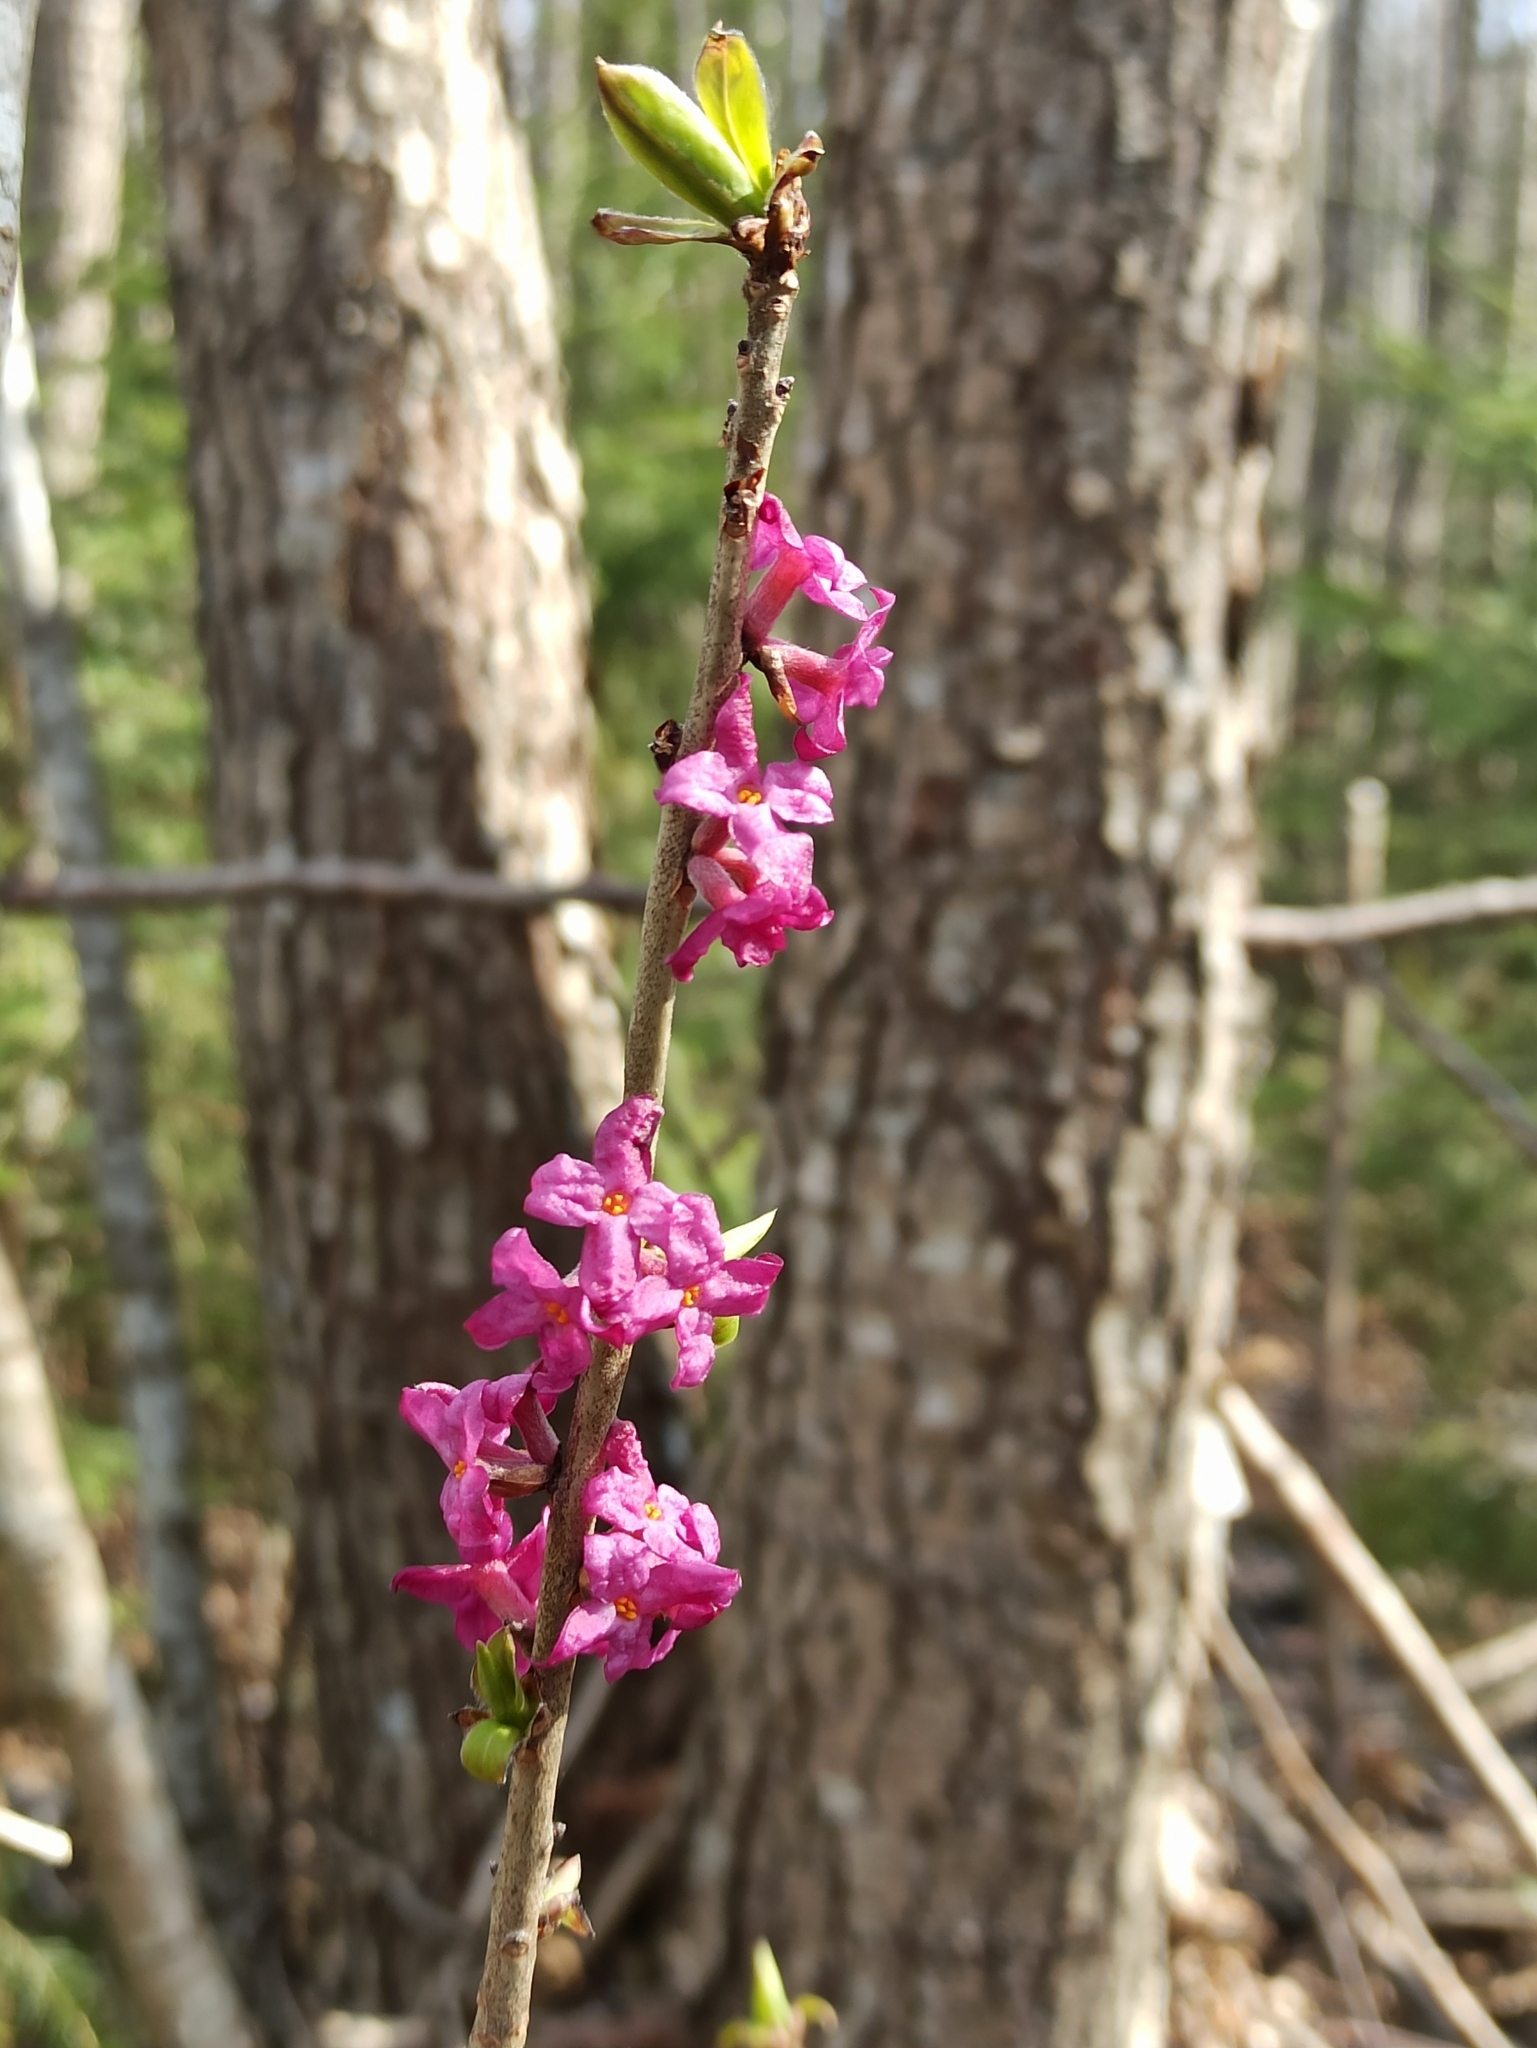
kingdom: Plantae
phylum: Tracheophyta
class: Magnoliopsida
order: Malvales
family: Thymelaeaceae
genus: Daphne
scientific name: Daphne mezereum
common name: Mezereon
